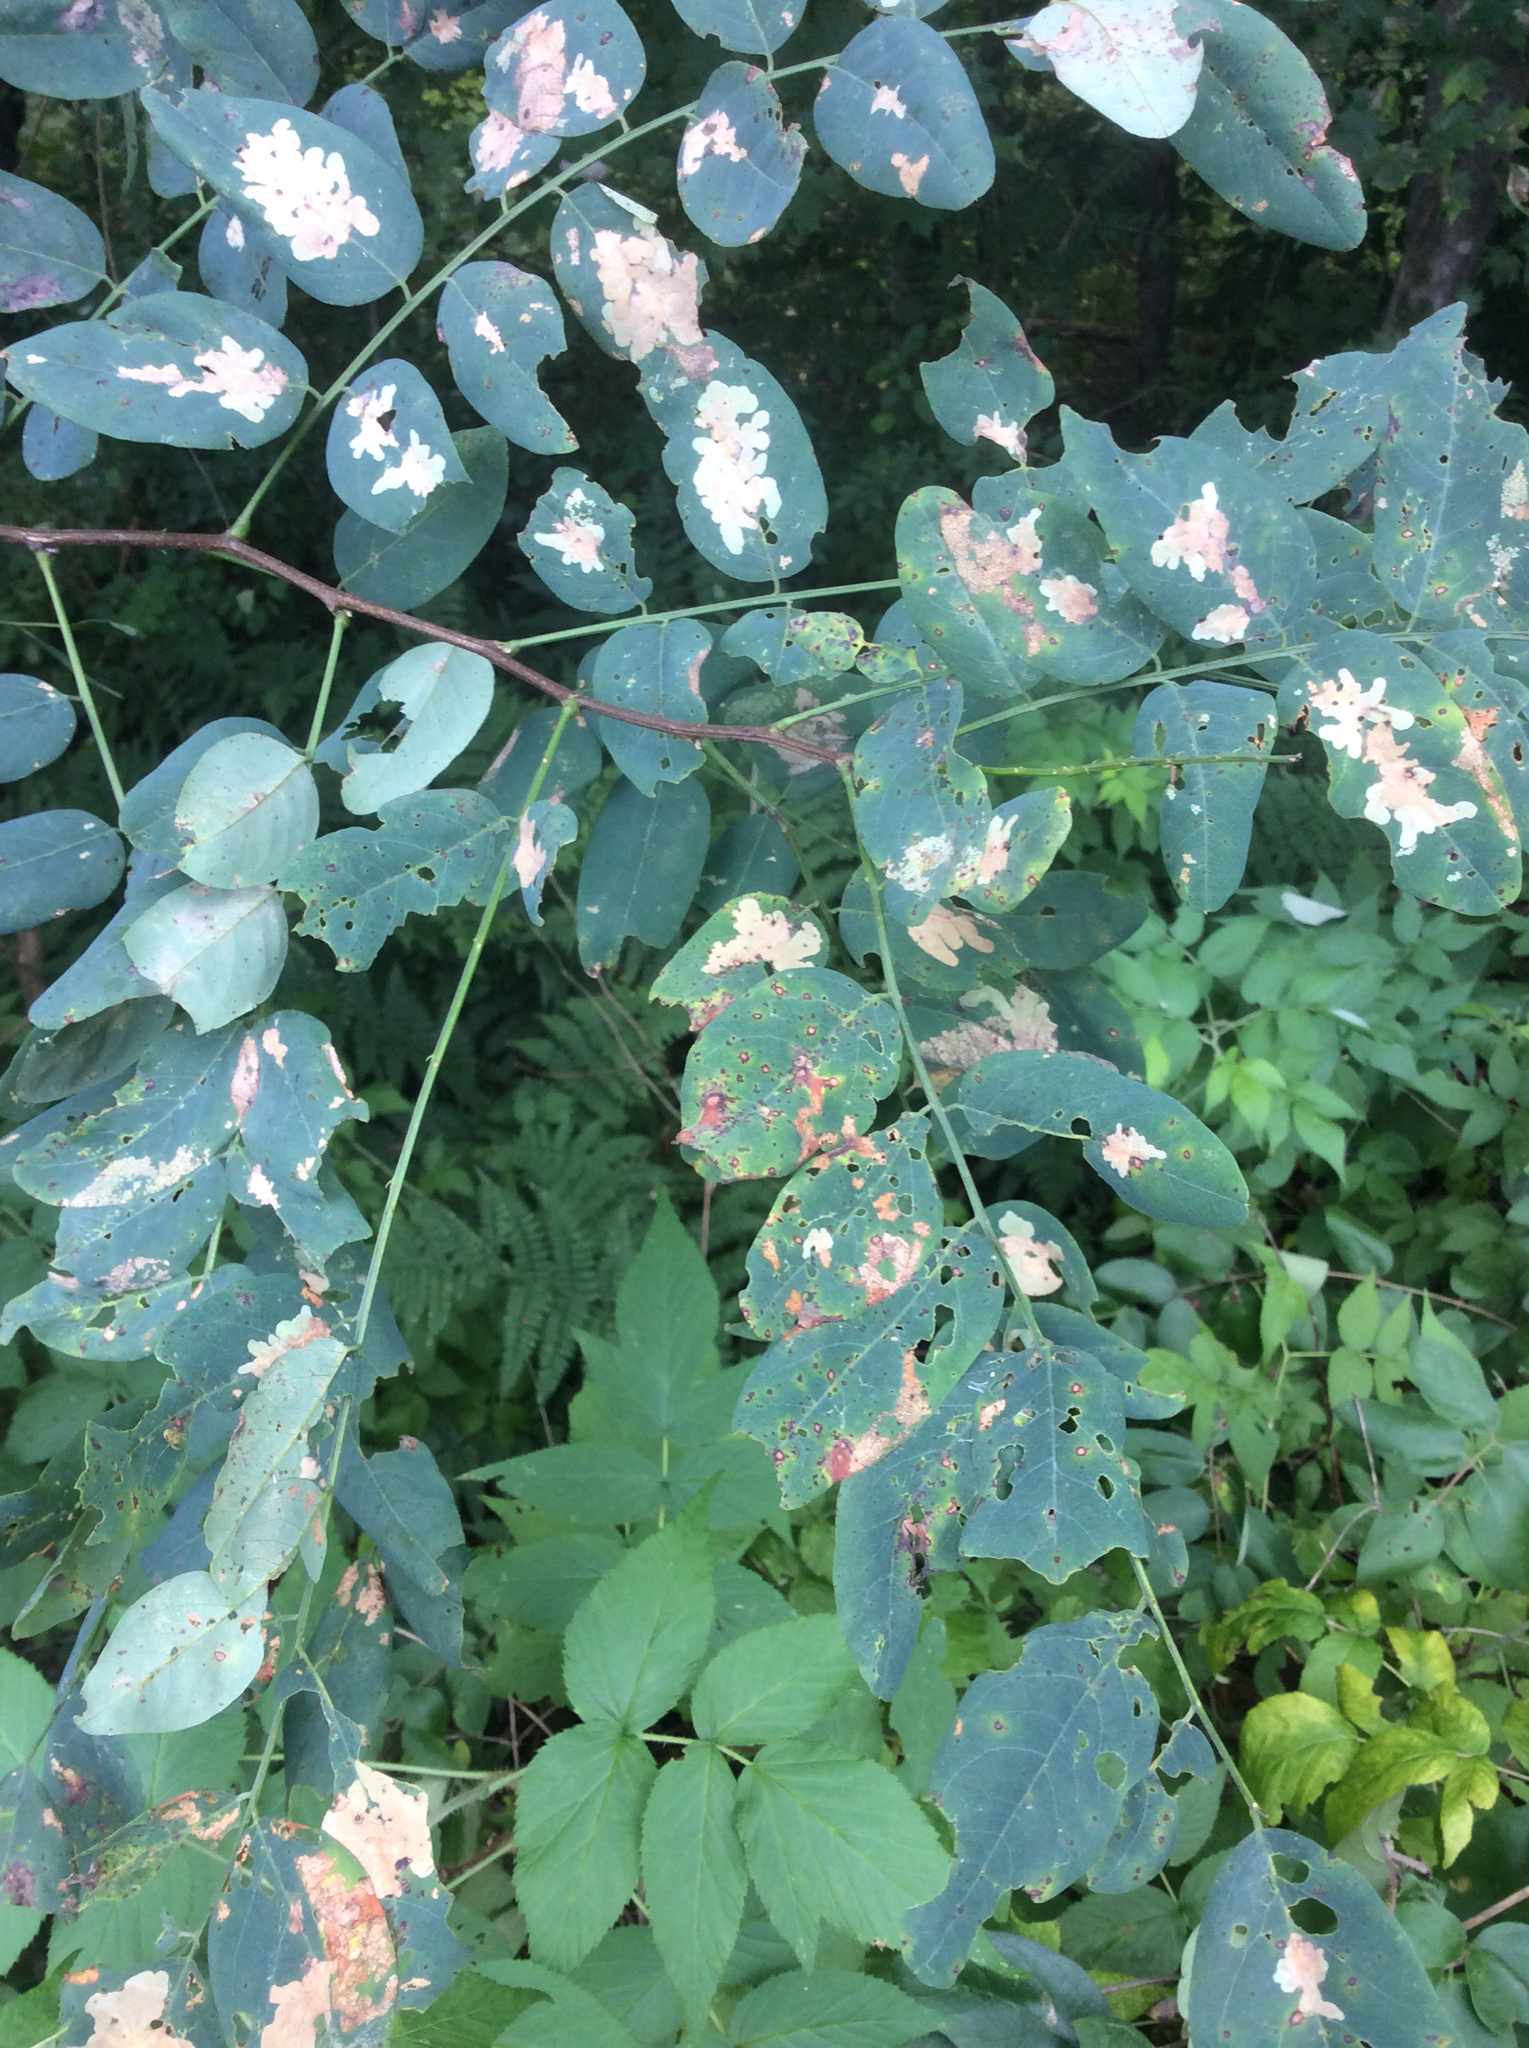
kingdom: Plantae
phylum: Tracheophyta
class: Magnoliopsida
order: Fabales
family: Fabaceae
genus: Robinia
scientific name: Robinia pseudoacacia
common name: Black locust
